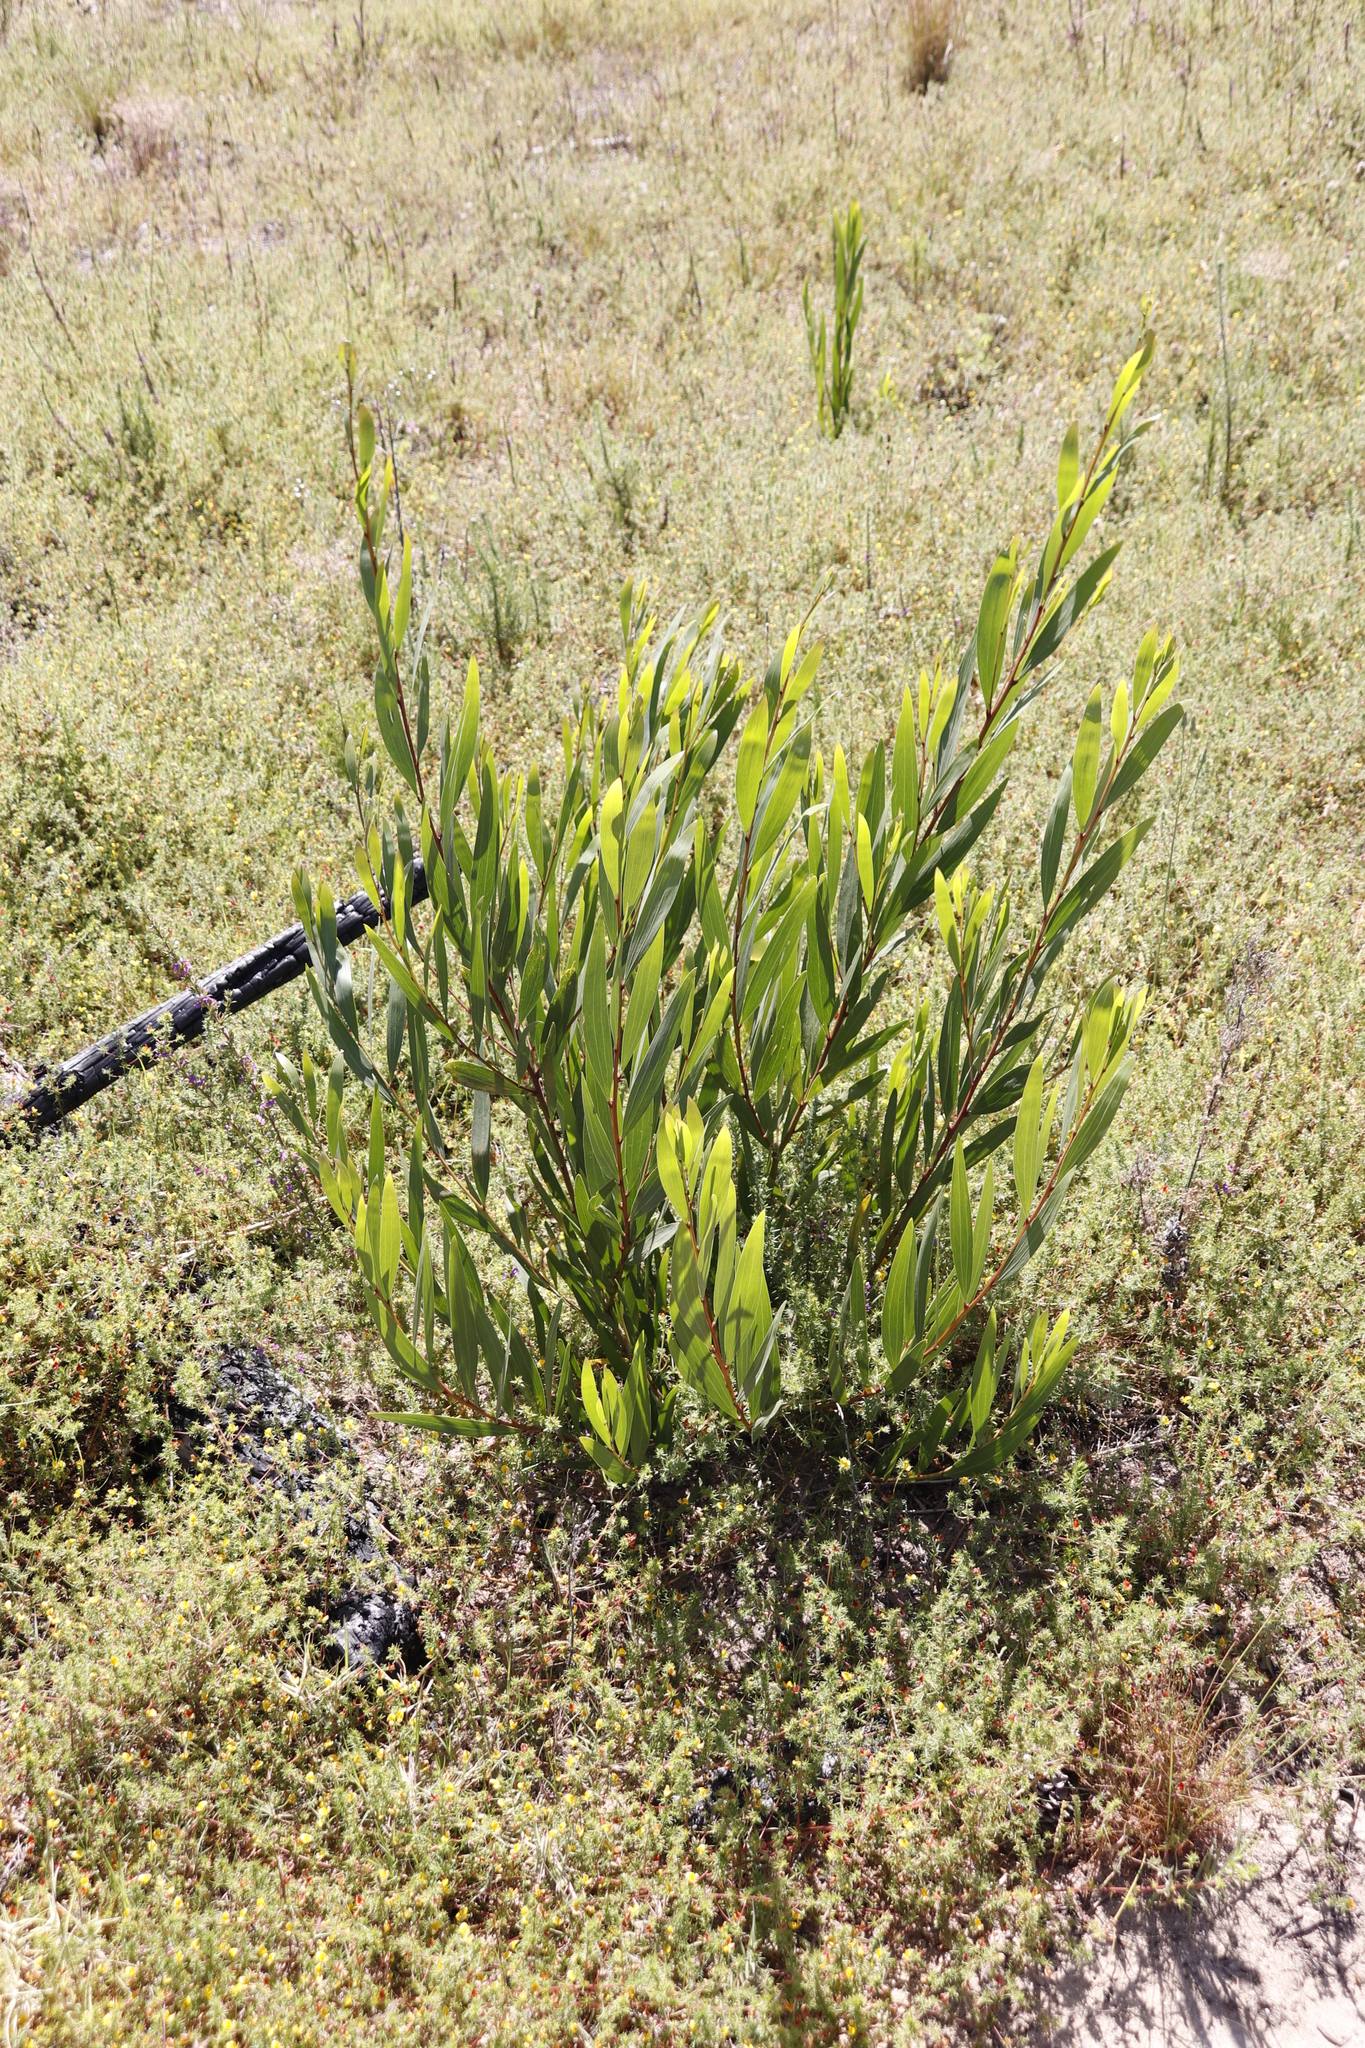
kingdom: Plantae
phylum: Tracheophyta
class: Magnoliopsida
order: Fabales
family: Fabaceae
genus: Acacia
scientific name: Acacia longifolia
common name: Sydney golden wattle
